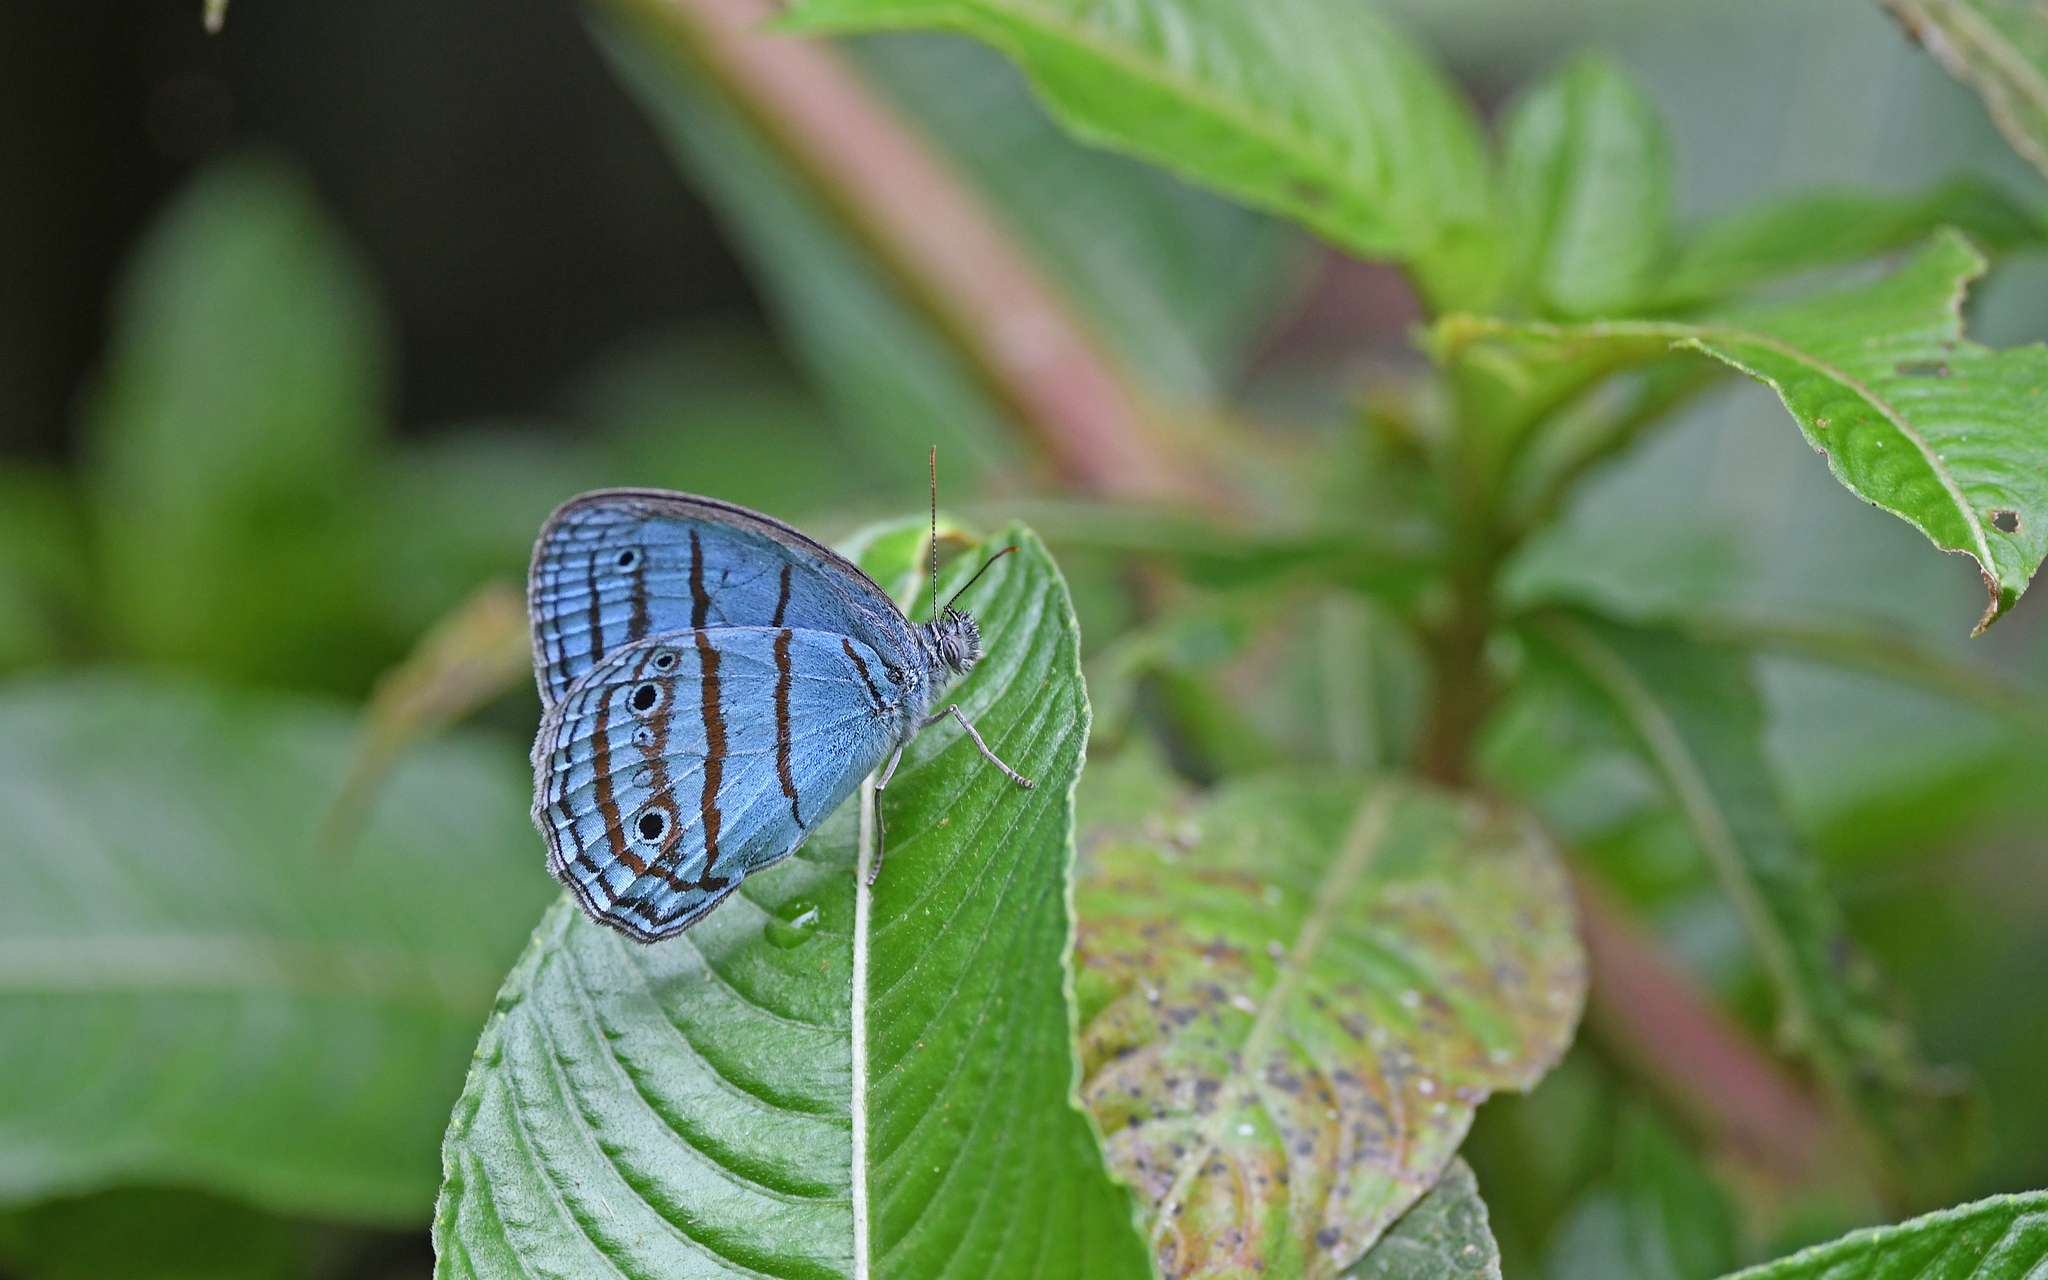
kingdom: Animalia
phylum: Arthropoda
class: Insecta
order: Lepidoptera
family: Nymphalidae
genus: Euptychia
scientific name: Euptychia crantor
